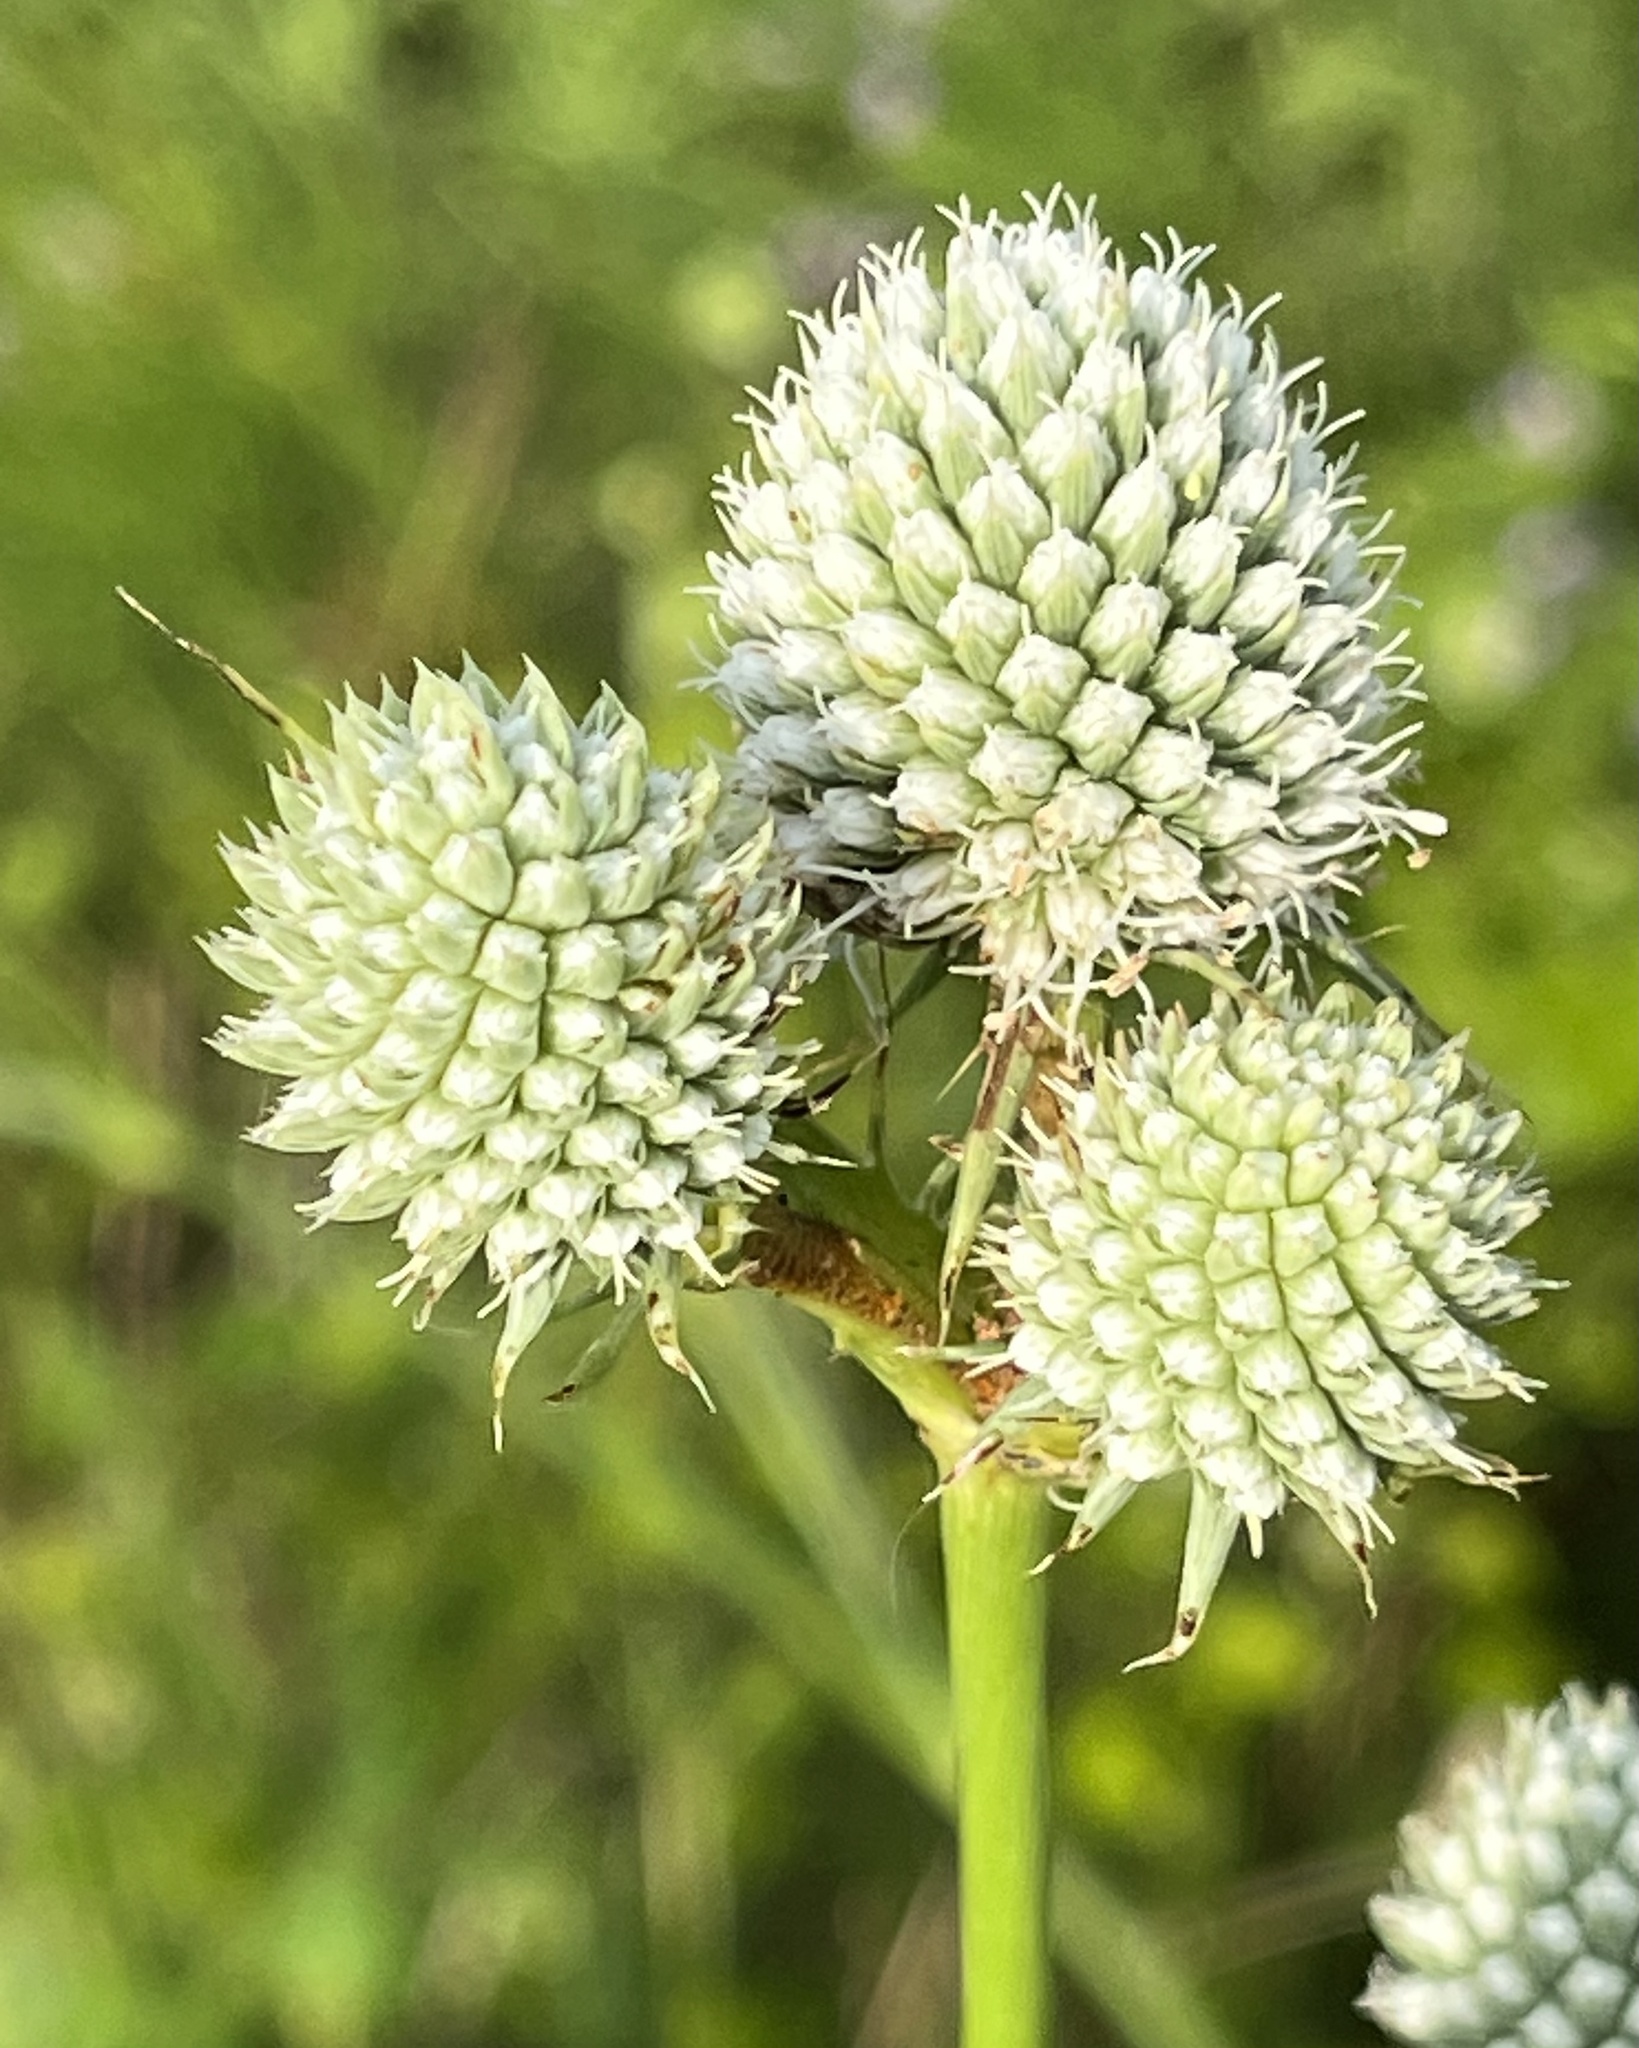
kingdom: Plantae
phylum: Tracheophyta
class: Magnoliopsida
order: Apiales
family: Apiaceae
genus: Eryngium
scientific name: Eryngium yuccifolium
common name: Button eryngo
